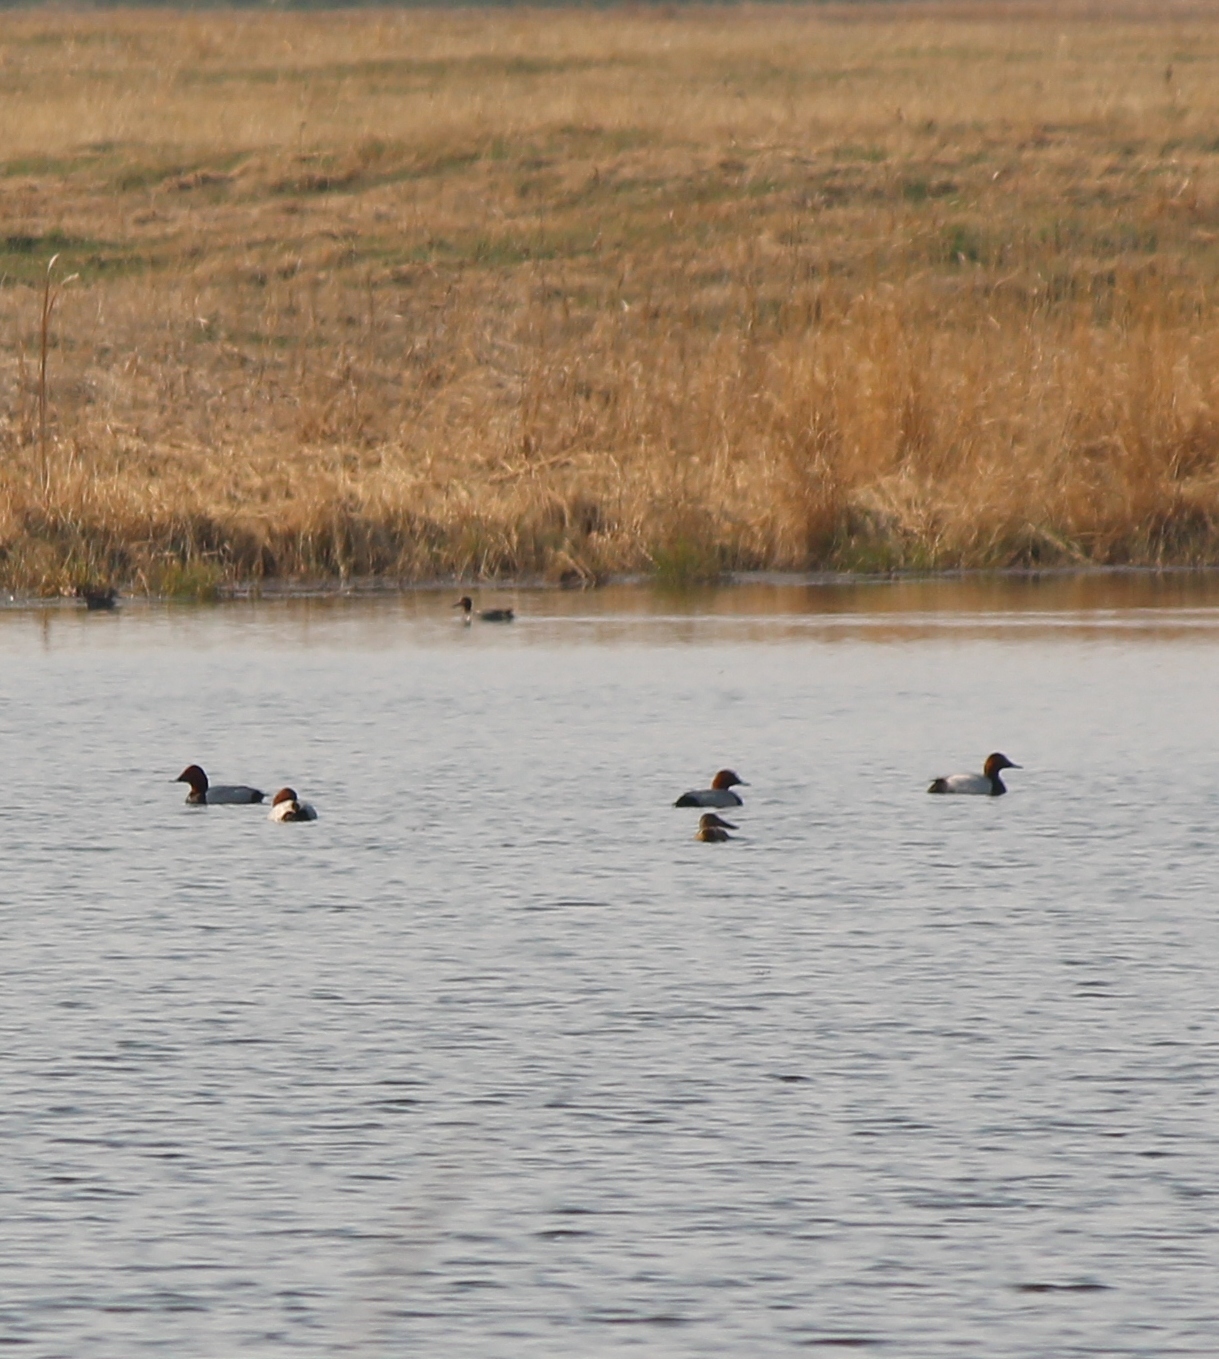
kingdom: Animalia
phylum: Chordata
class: Aves
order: Anseriformes
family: Anatidae
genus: Aythya
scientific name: Aythya ferina
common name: Common pochard
